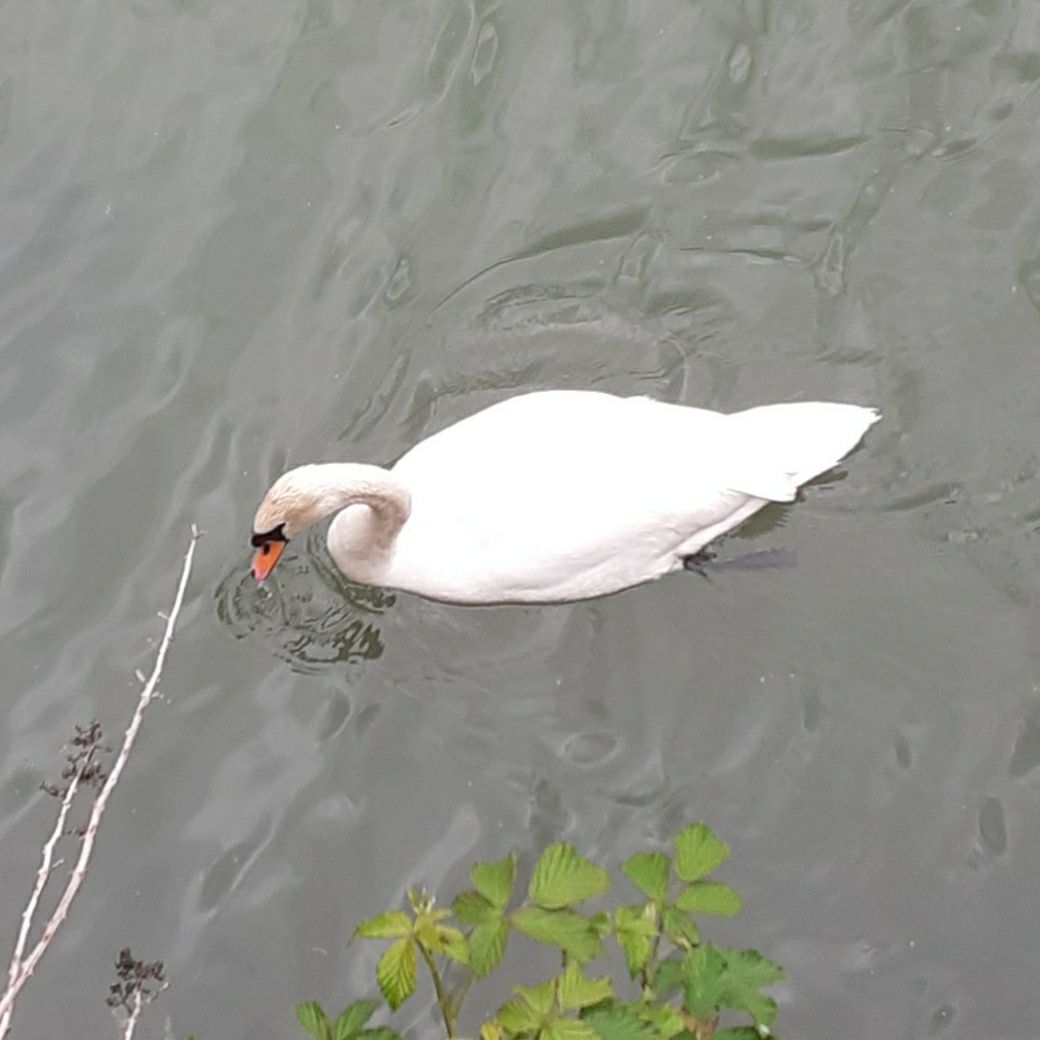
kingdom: Animalia
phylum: Chordata
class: Aves
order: Anseriformes
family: Anatidae
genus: Cygnus
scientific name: Cygnus olor
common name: Mute swan
